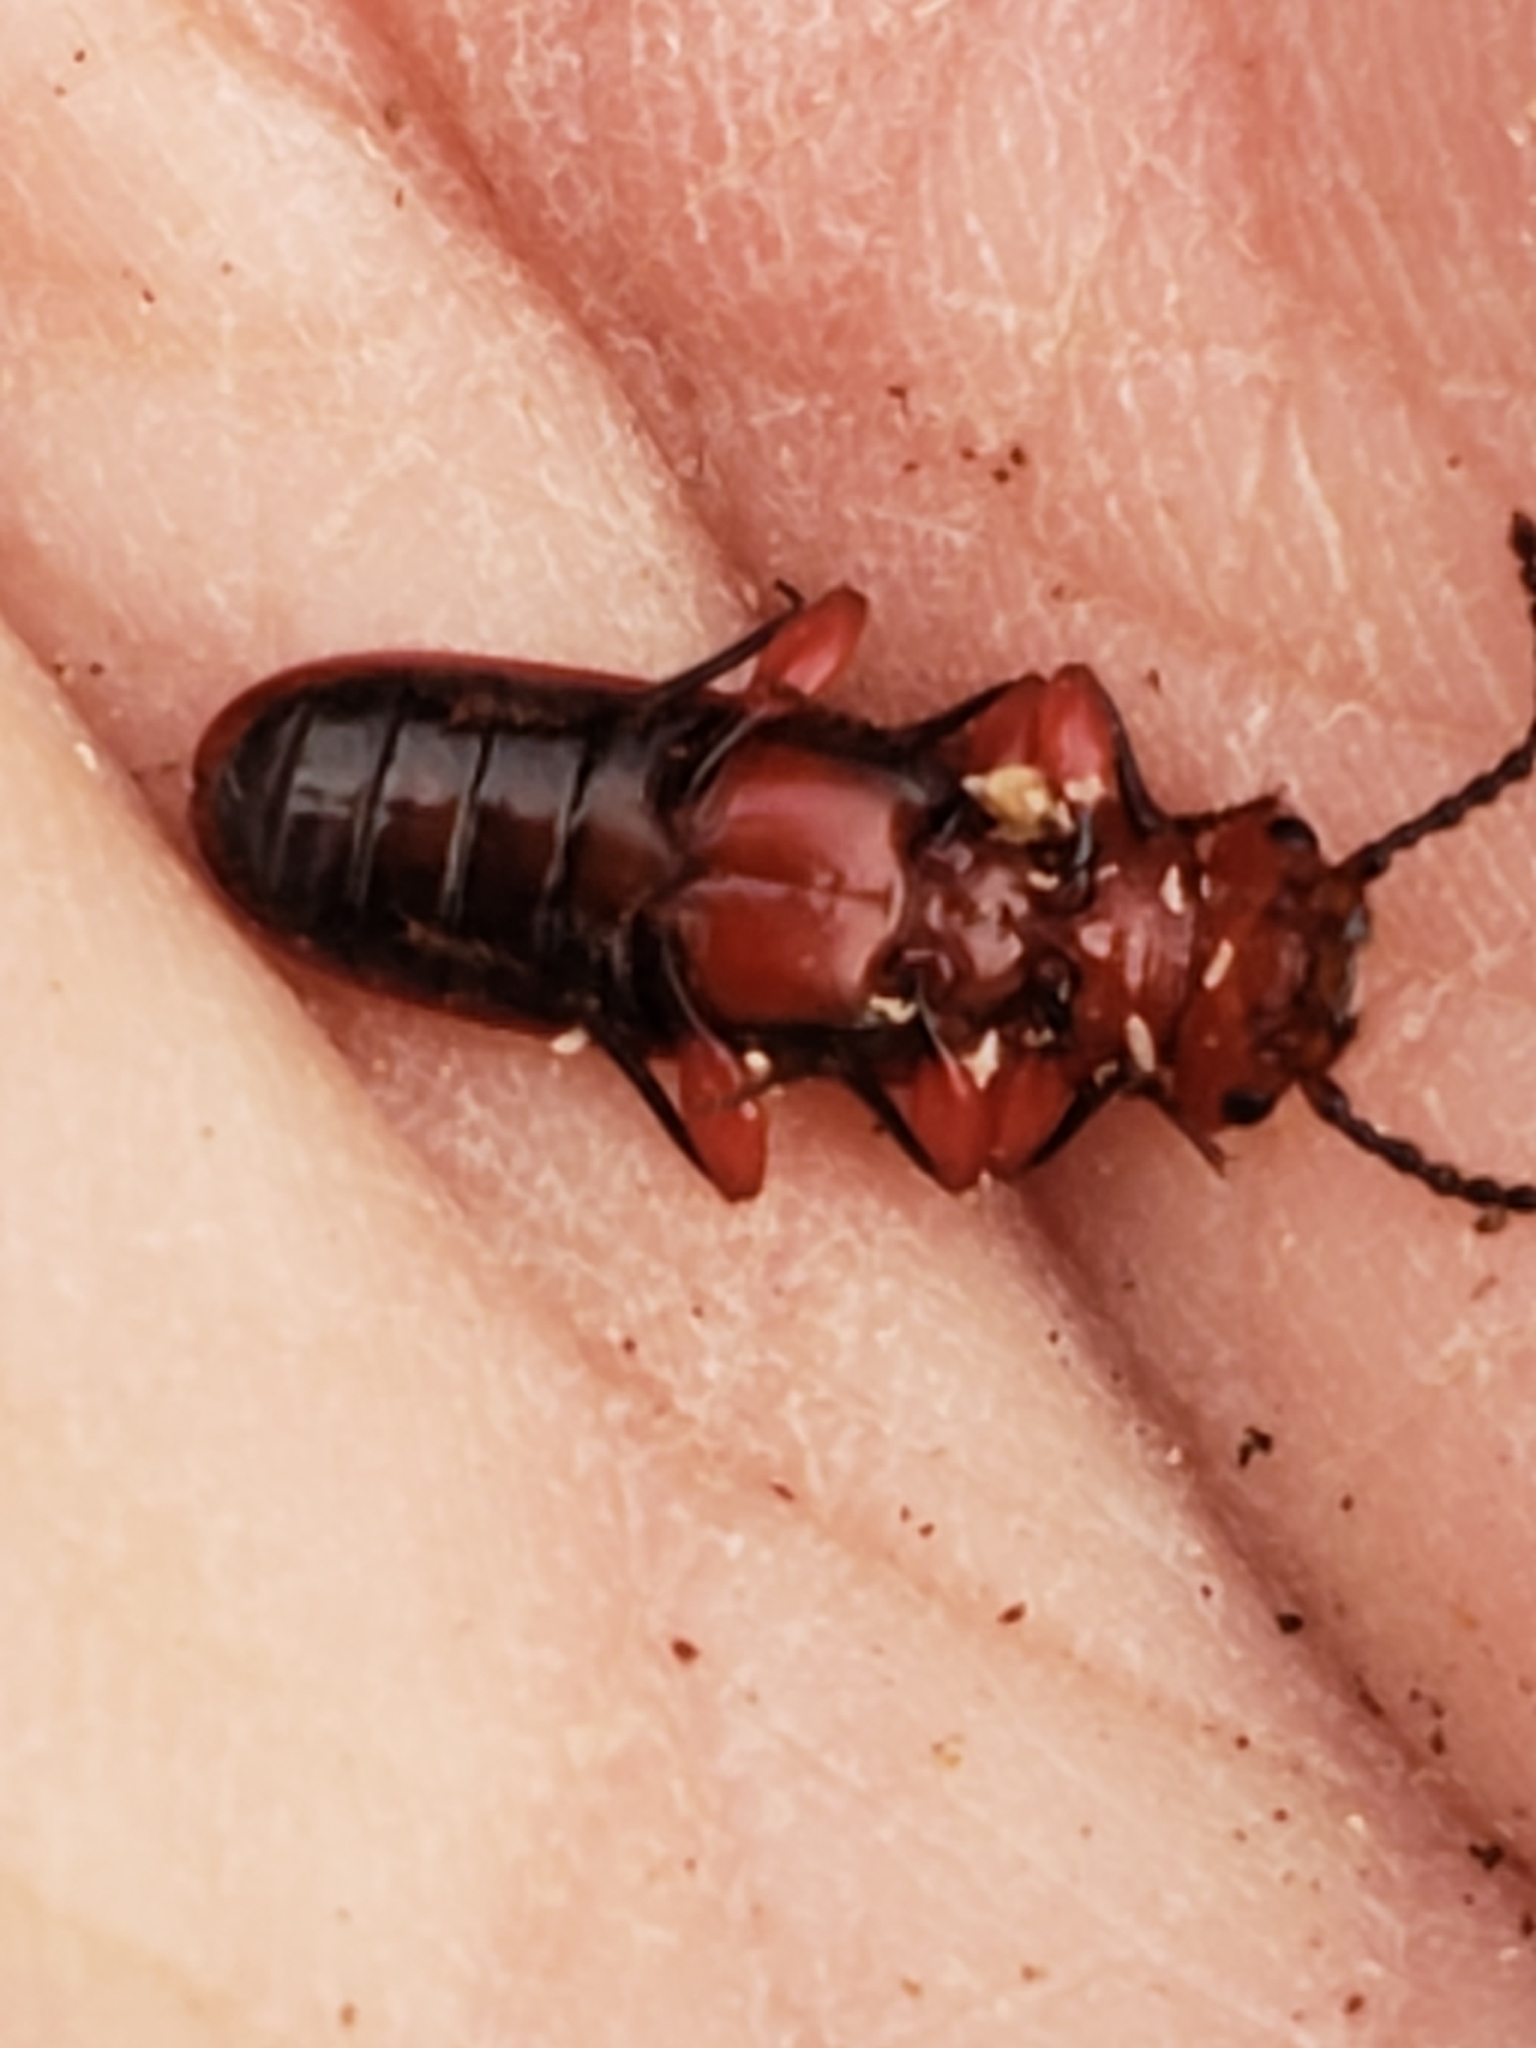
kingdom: Animalia
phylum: Arthropoda
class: Insecta
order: Coleoptera
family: Cucujidae
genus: Cucujus
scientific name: Cucujus clavipes
